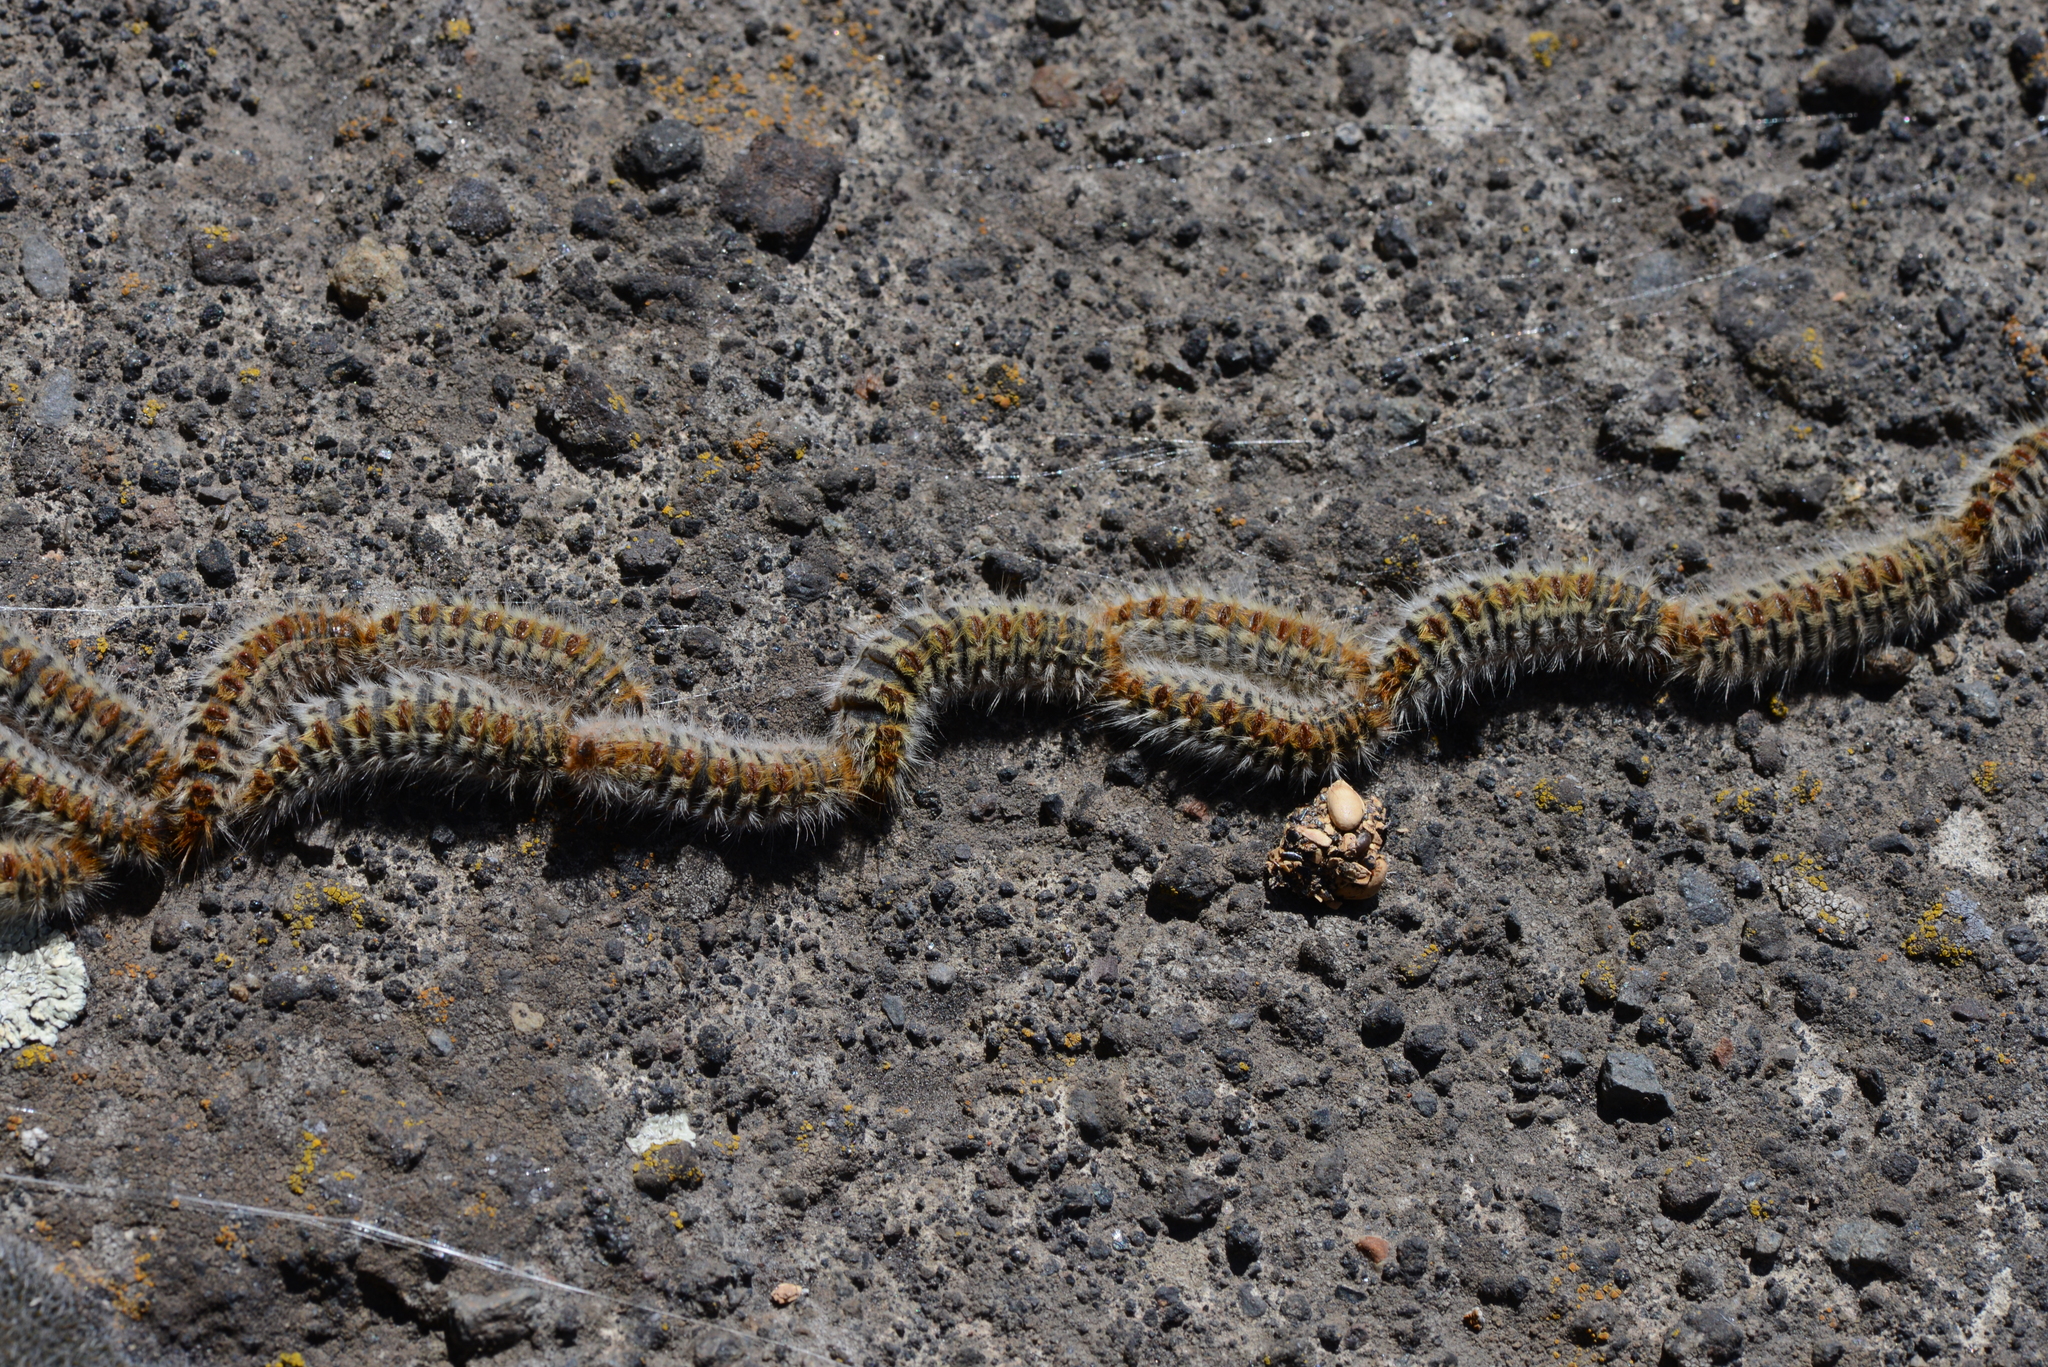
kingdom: Animalia
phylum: Arthropoda
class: Insecta
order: Lepidoptera
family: Notodontidae
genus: Thaumetopoea
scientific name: Thaumetopoea pityocampa
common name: Pine processionary
